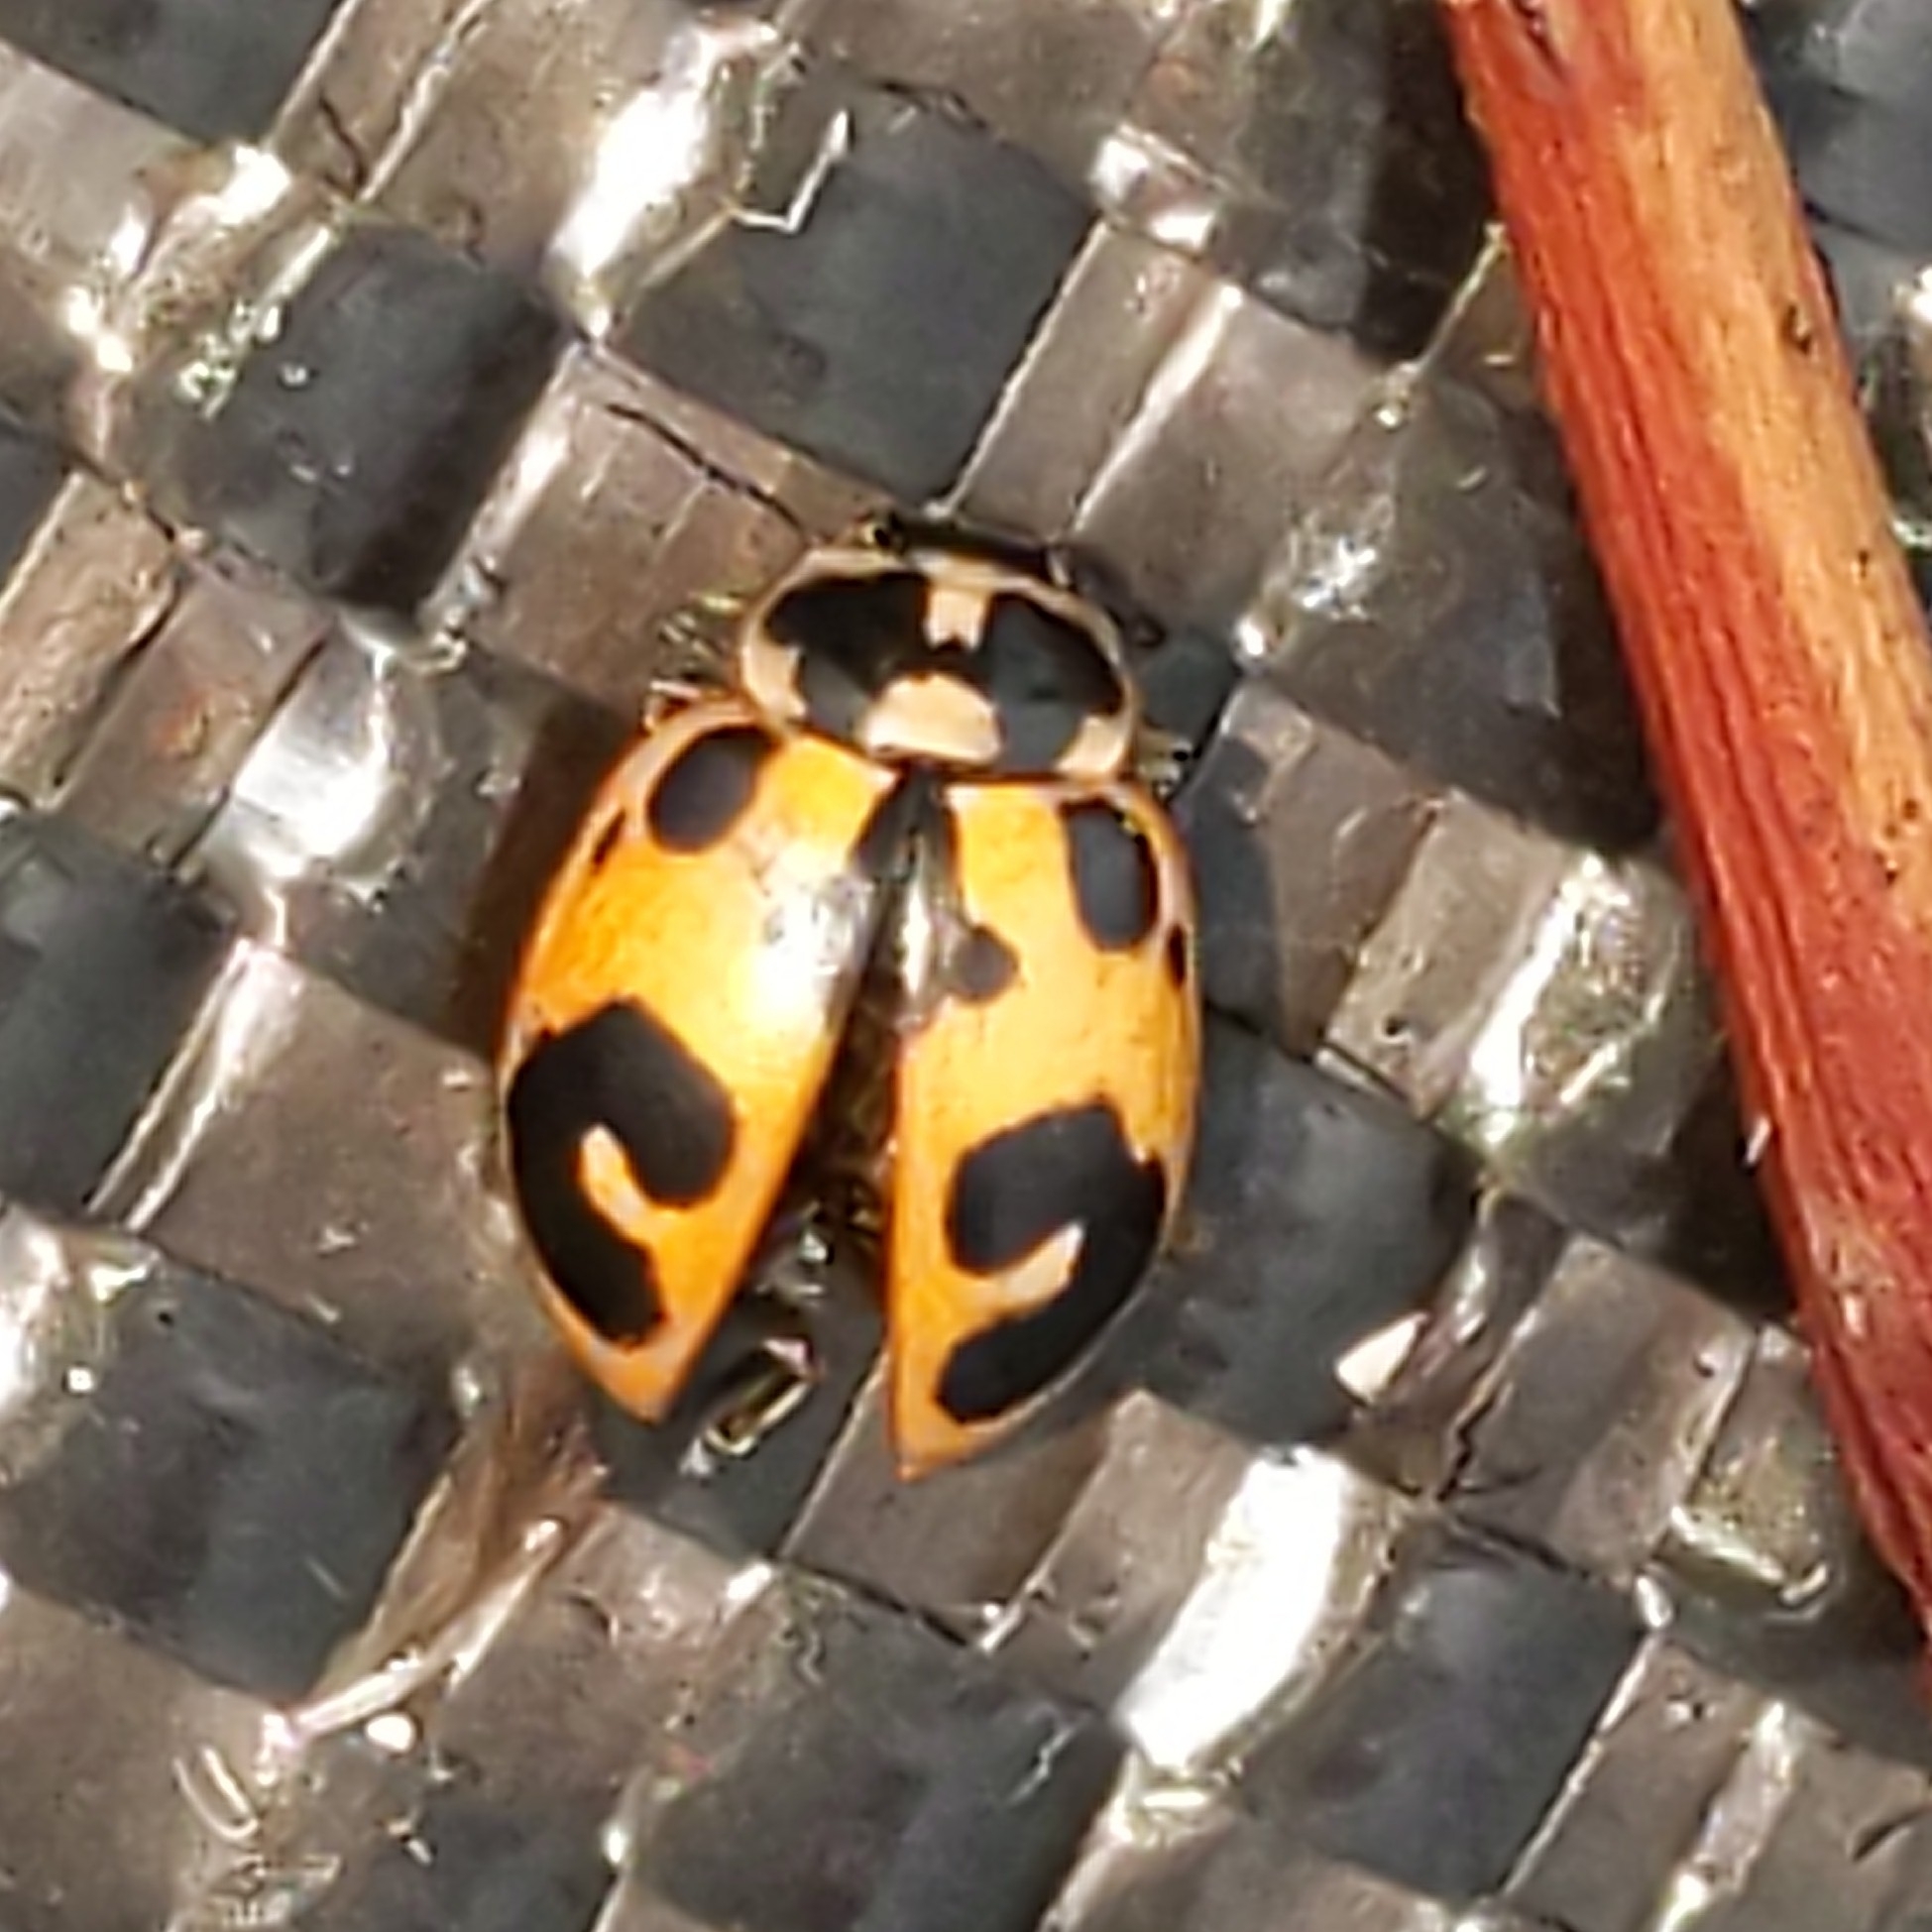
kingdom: Animalia
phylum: Arthropoda
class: Insecta
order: Coleoptera
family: Coccinellidae
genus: Hippodamia
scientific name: Hippodamia parenthesis
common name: Parenthesis lady beetle
